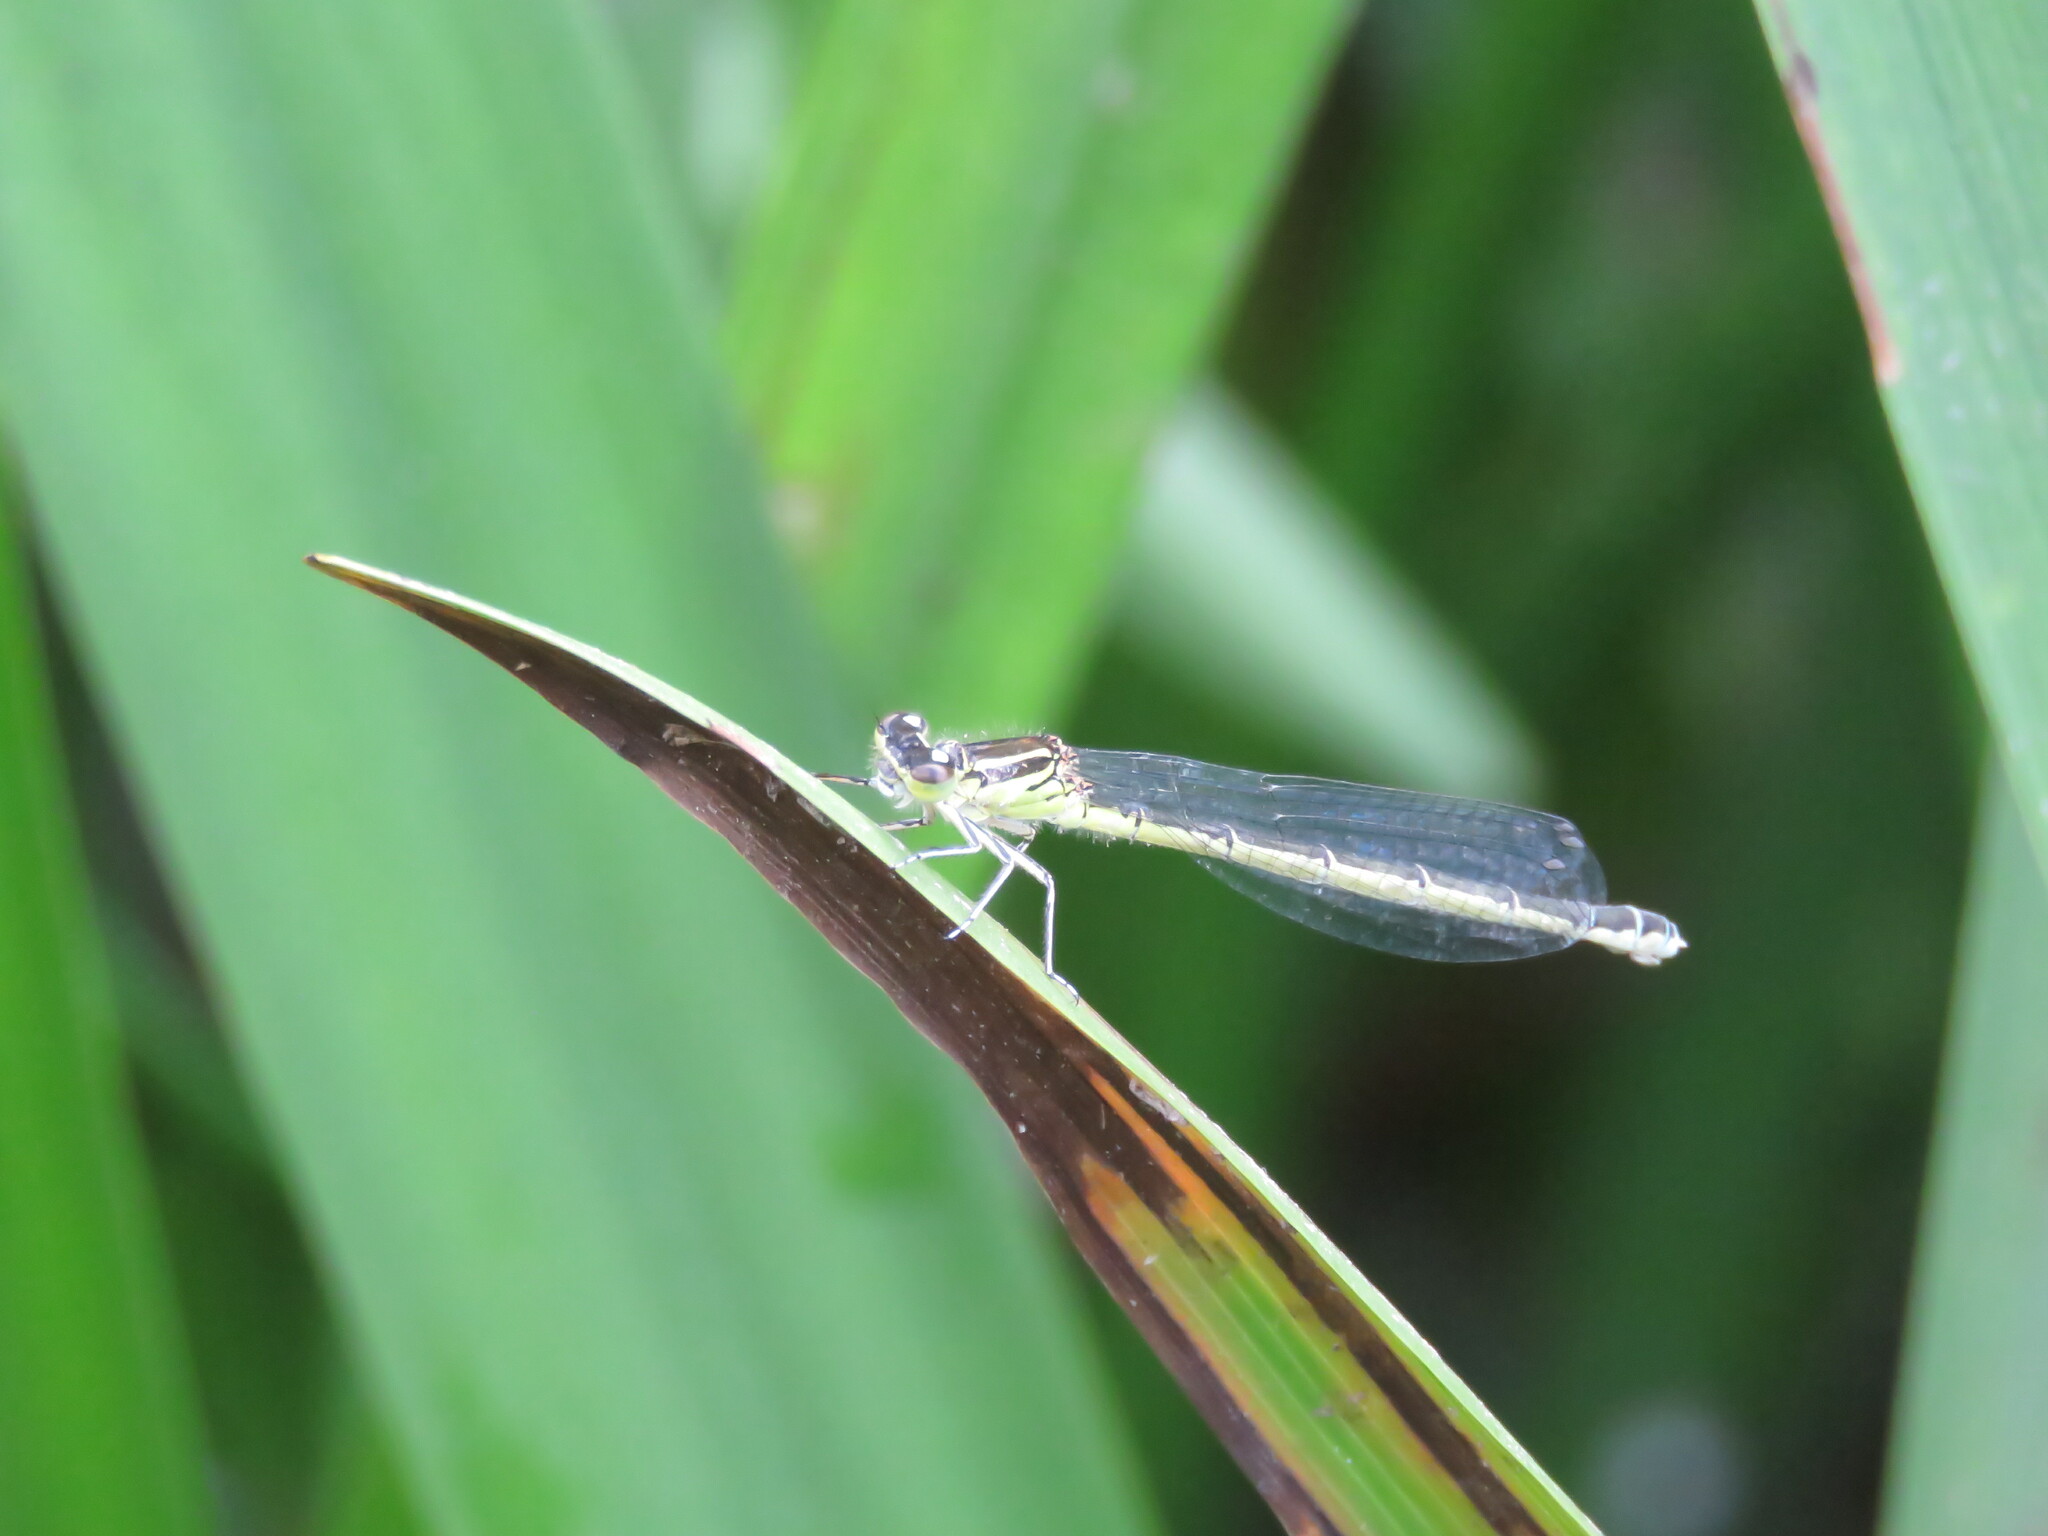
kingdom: Animalia
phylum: Arthropoda
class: Insecta
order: Odonata
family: Coenagrionidae
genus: Coenagrion
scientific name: Coenagrion mercuriale
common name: Southern damselfly
